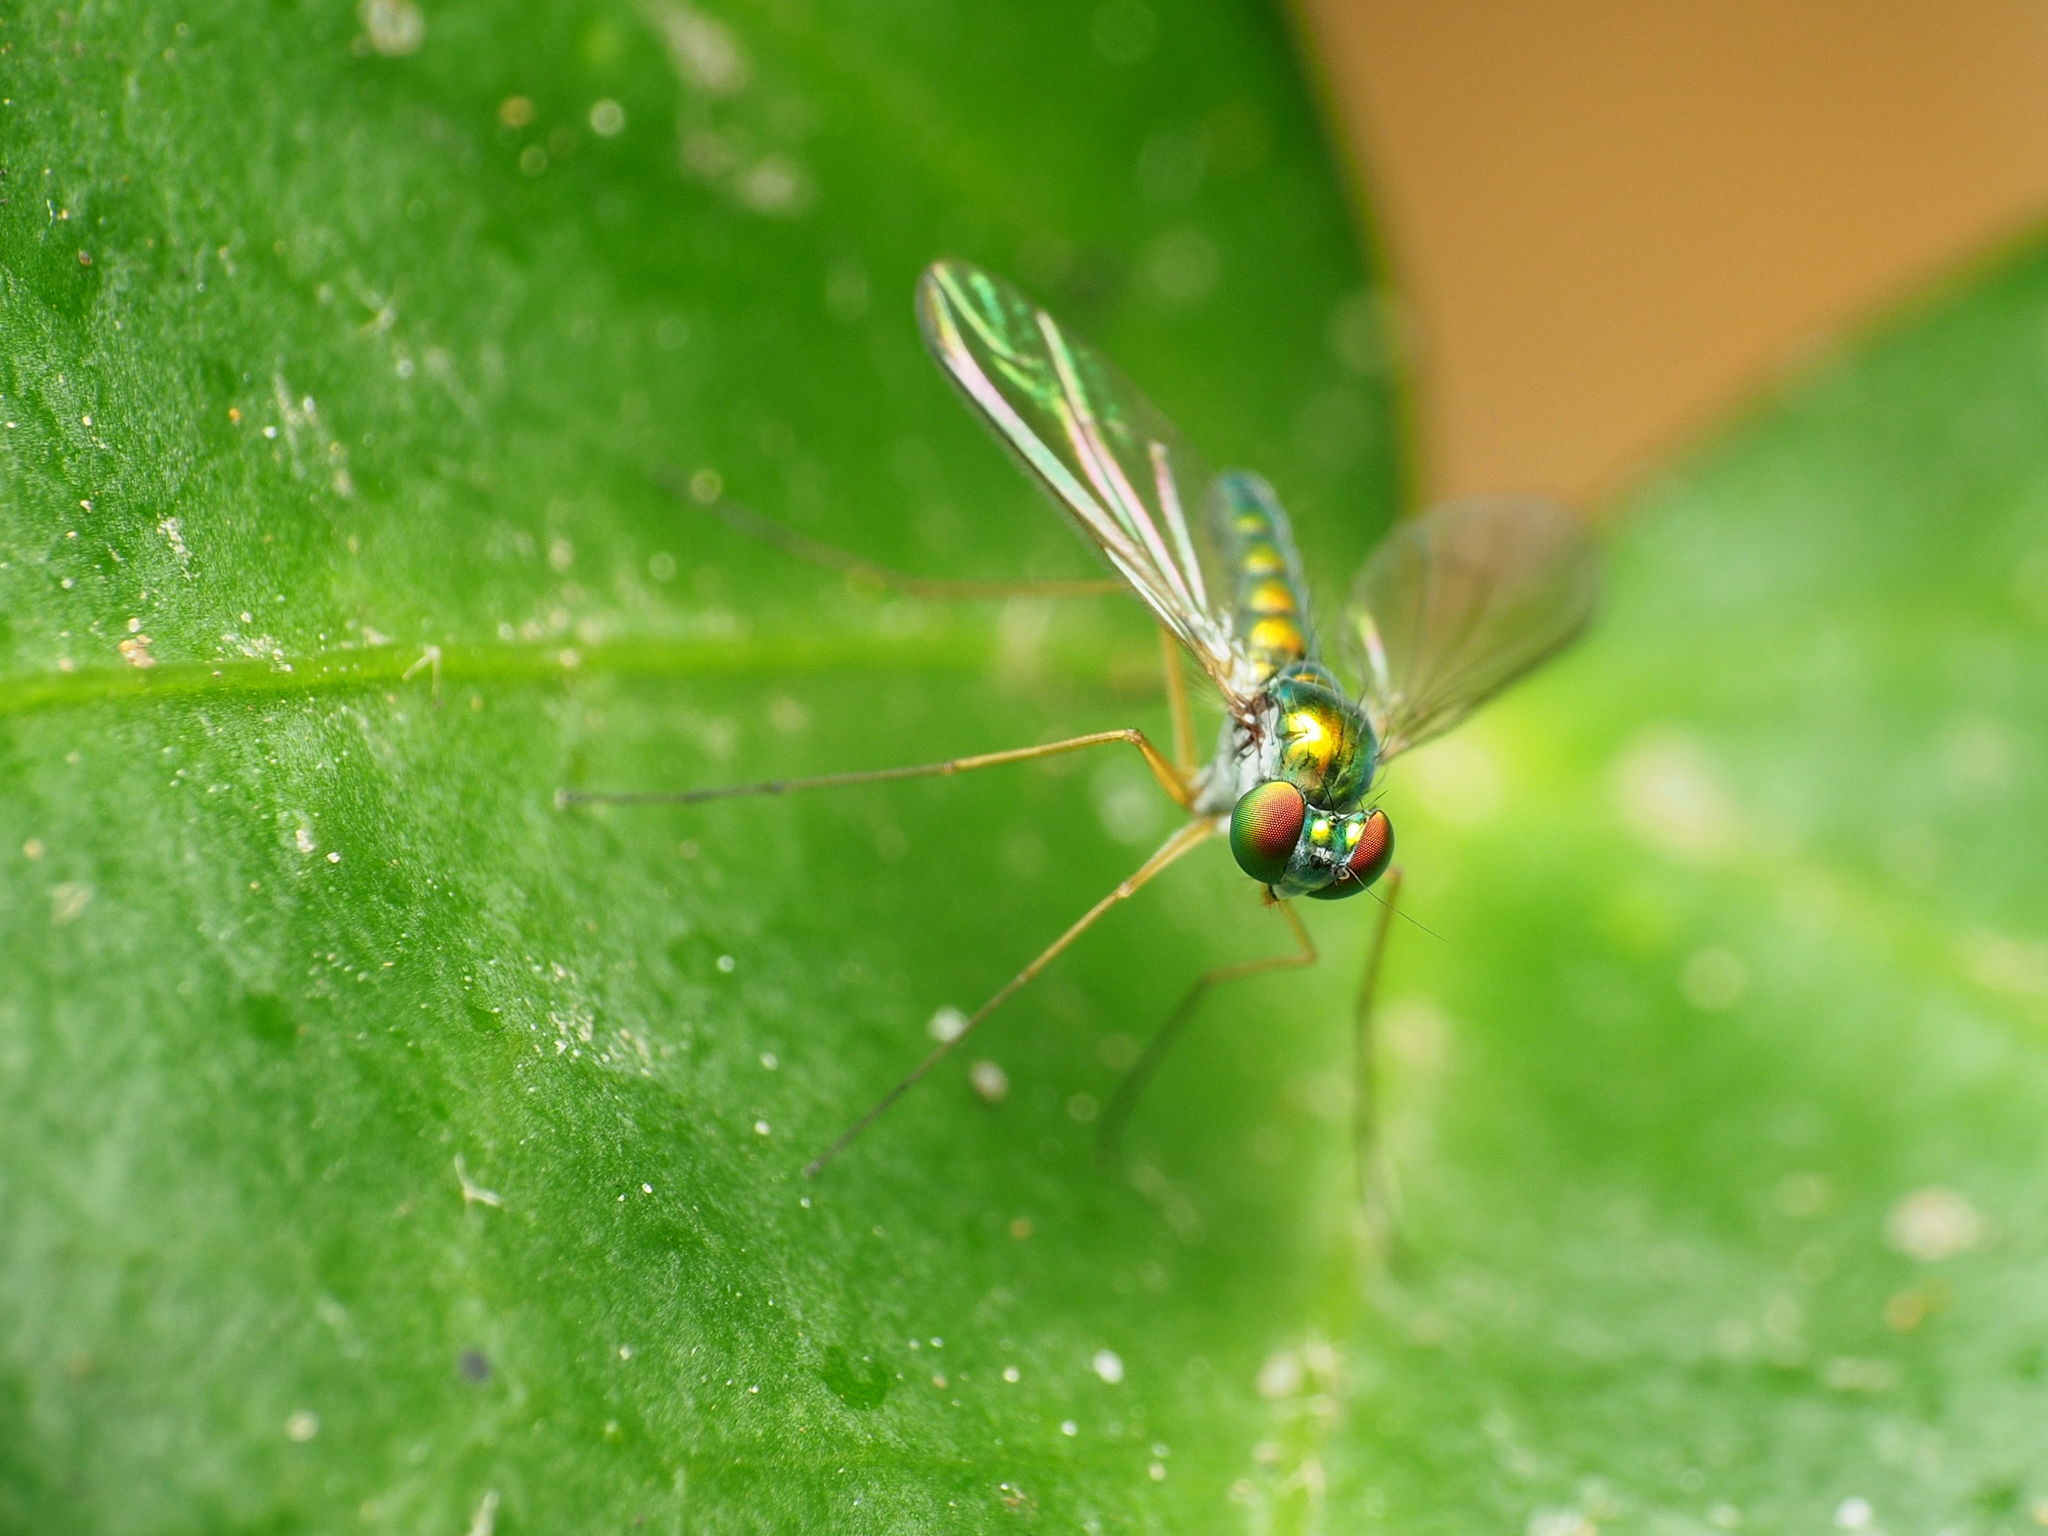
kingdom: Animalia
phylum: Arthropoda
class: Insecta
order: Diptera
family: Dolichopodidae
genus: Amblypsilopus
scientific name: Amblypsilopus scintillans
